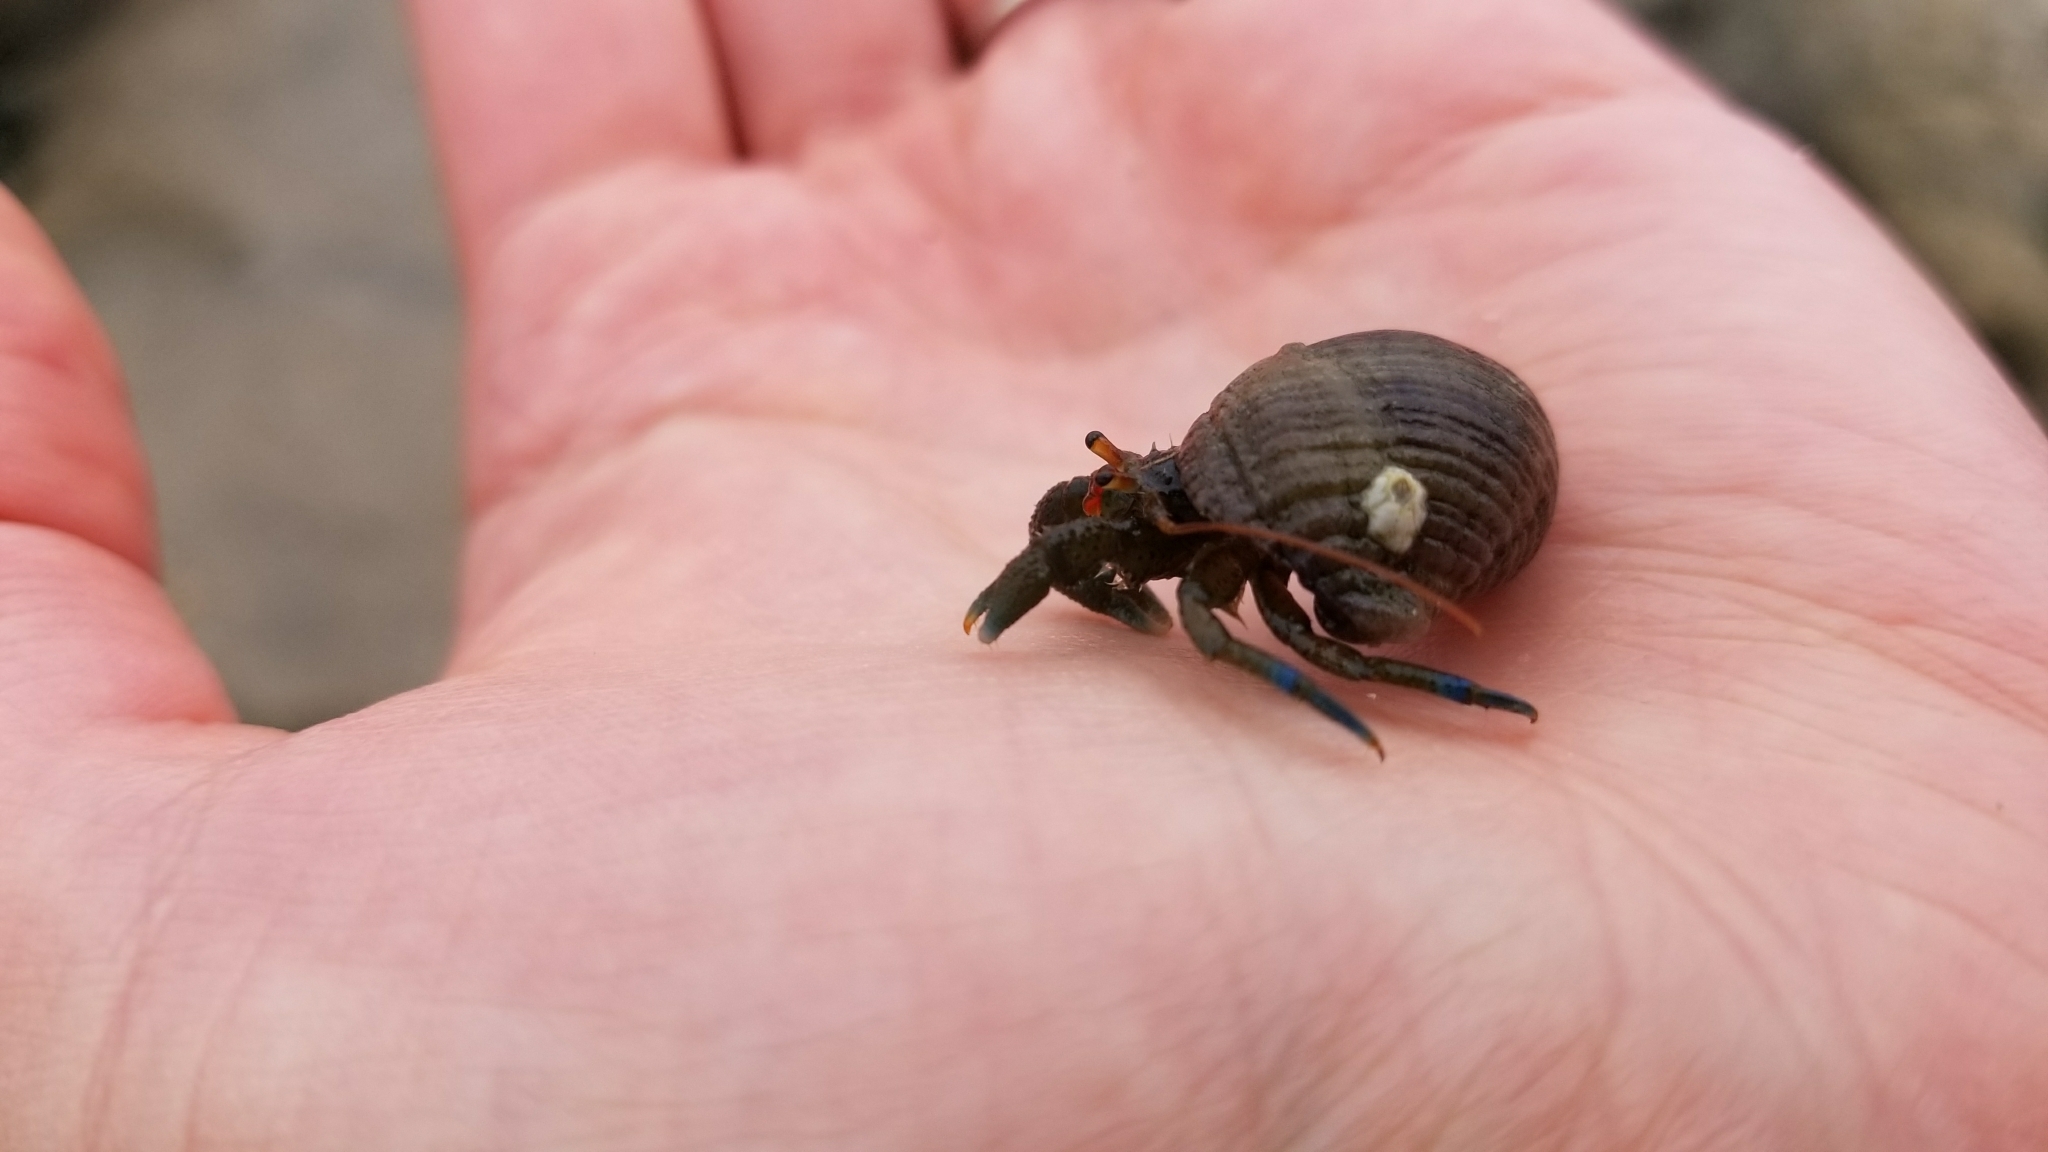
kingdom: Animalia
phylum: Arthropoda
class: Malacostraca
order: Decapoda
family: Paguridae
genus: Pagurus
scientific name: Pagurus samuelis
